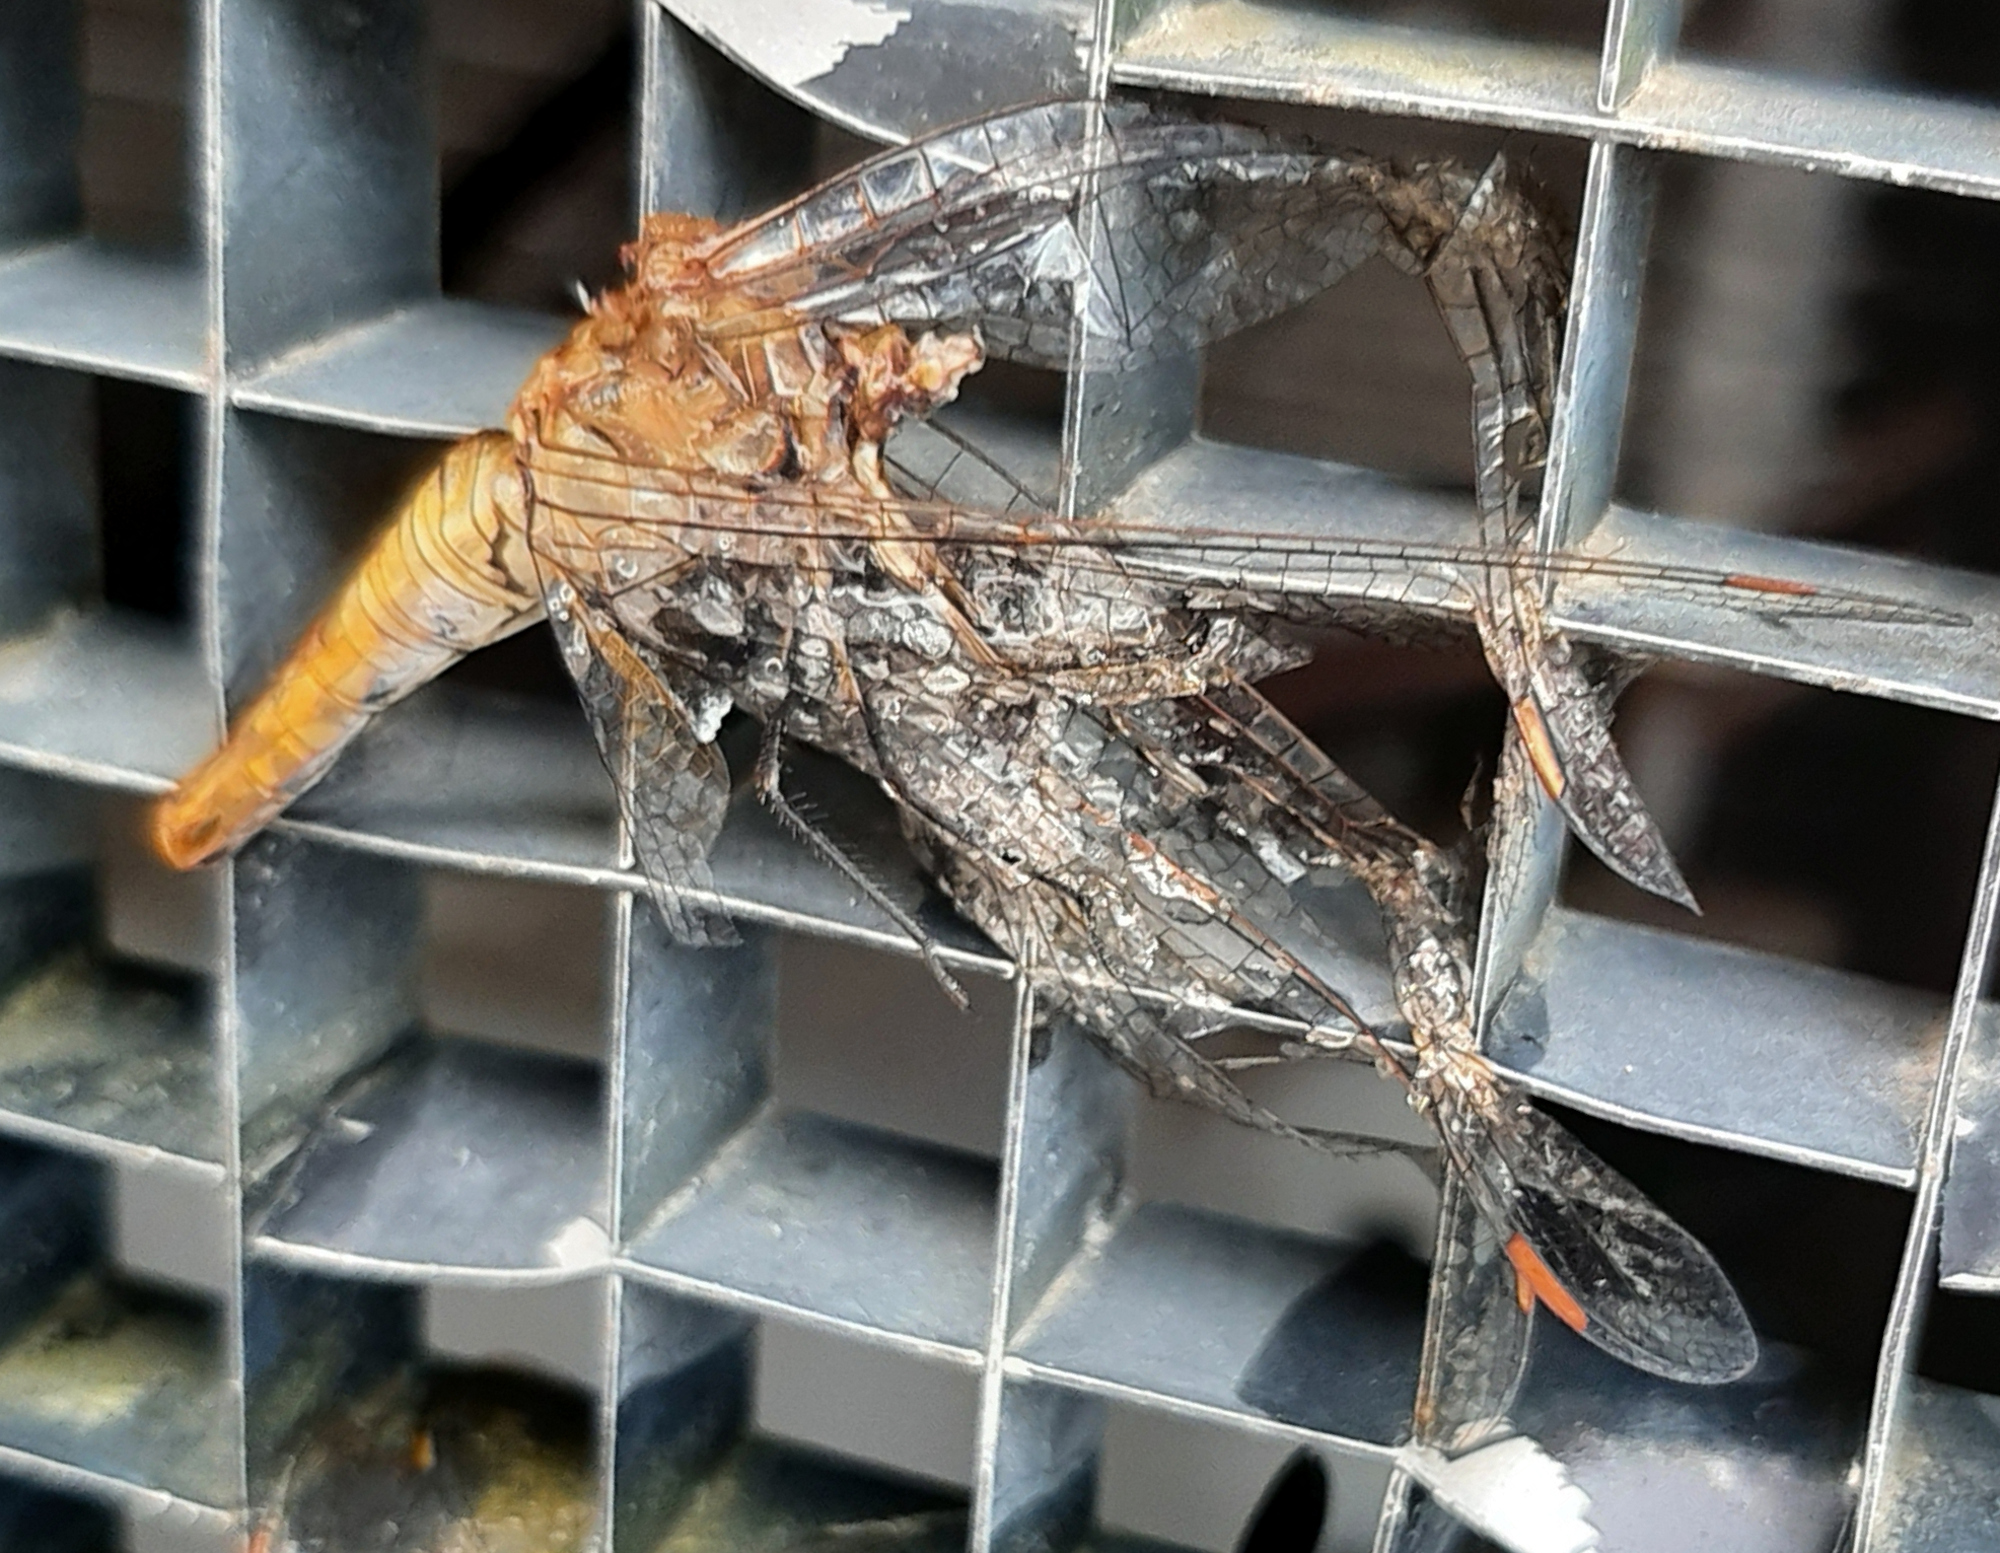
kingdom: Animalia
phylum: Arthropoda
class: Insecta
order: Odonata
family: Libellulidae
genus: Pantala
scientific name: Pantala flavescens
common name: Wandering glider
